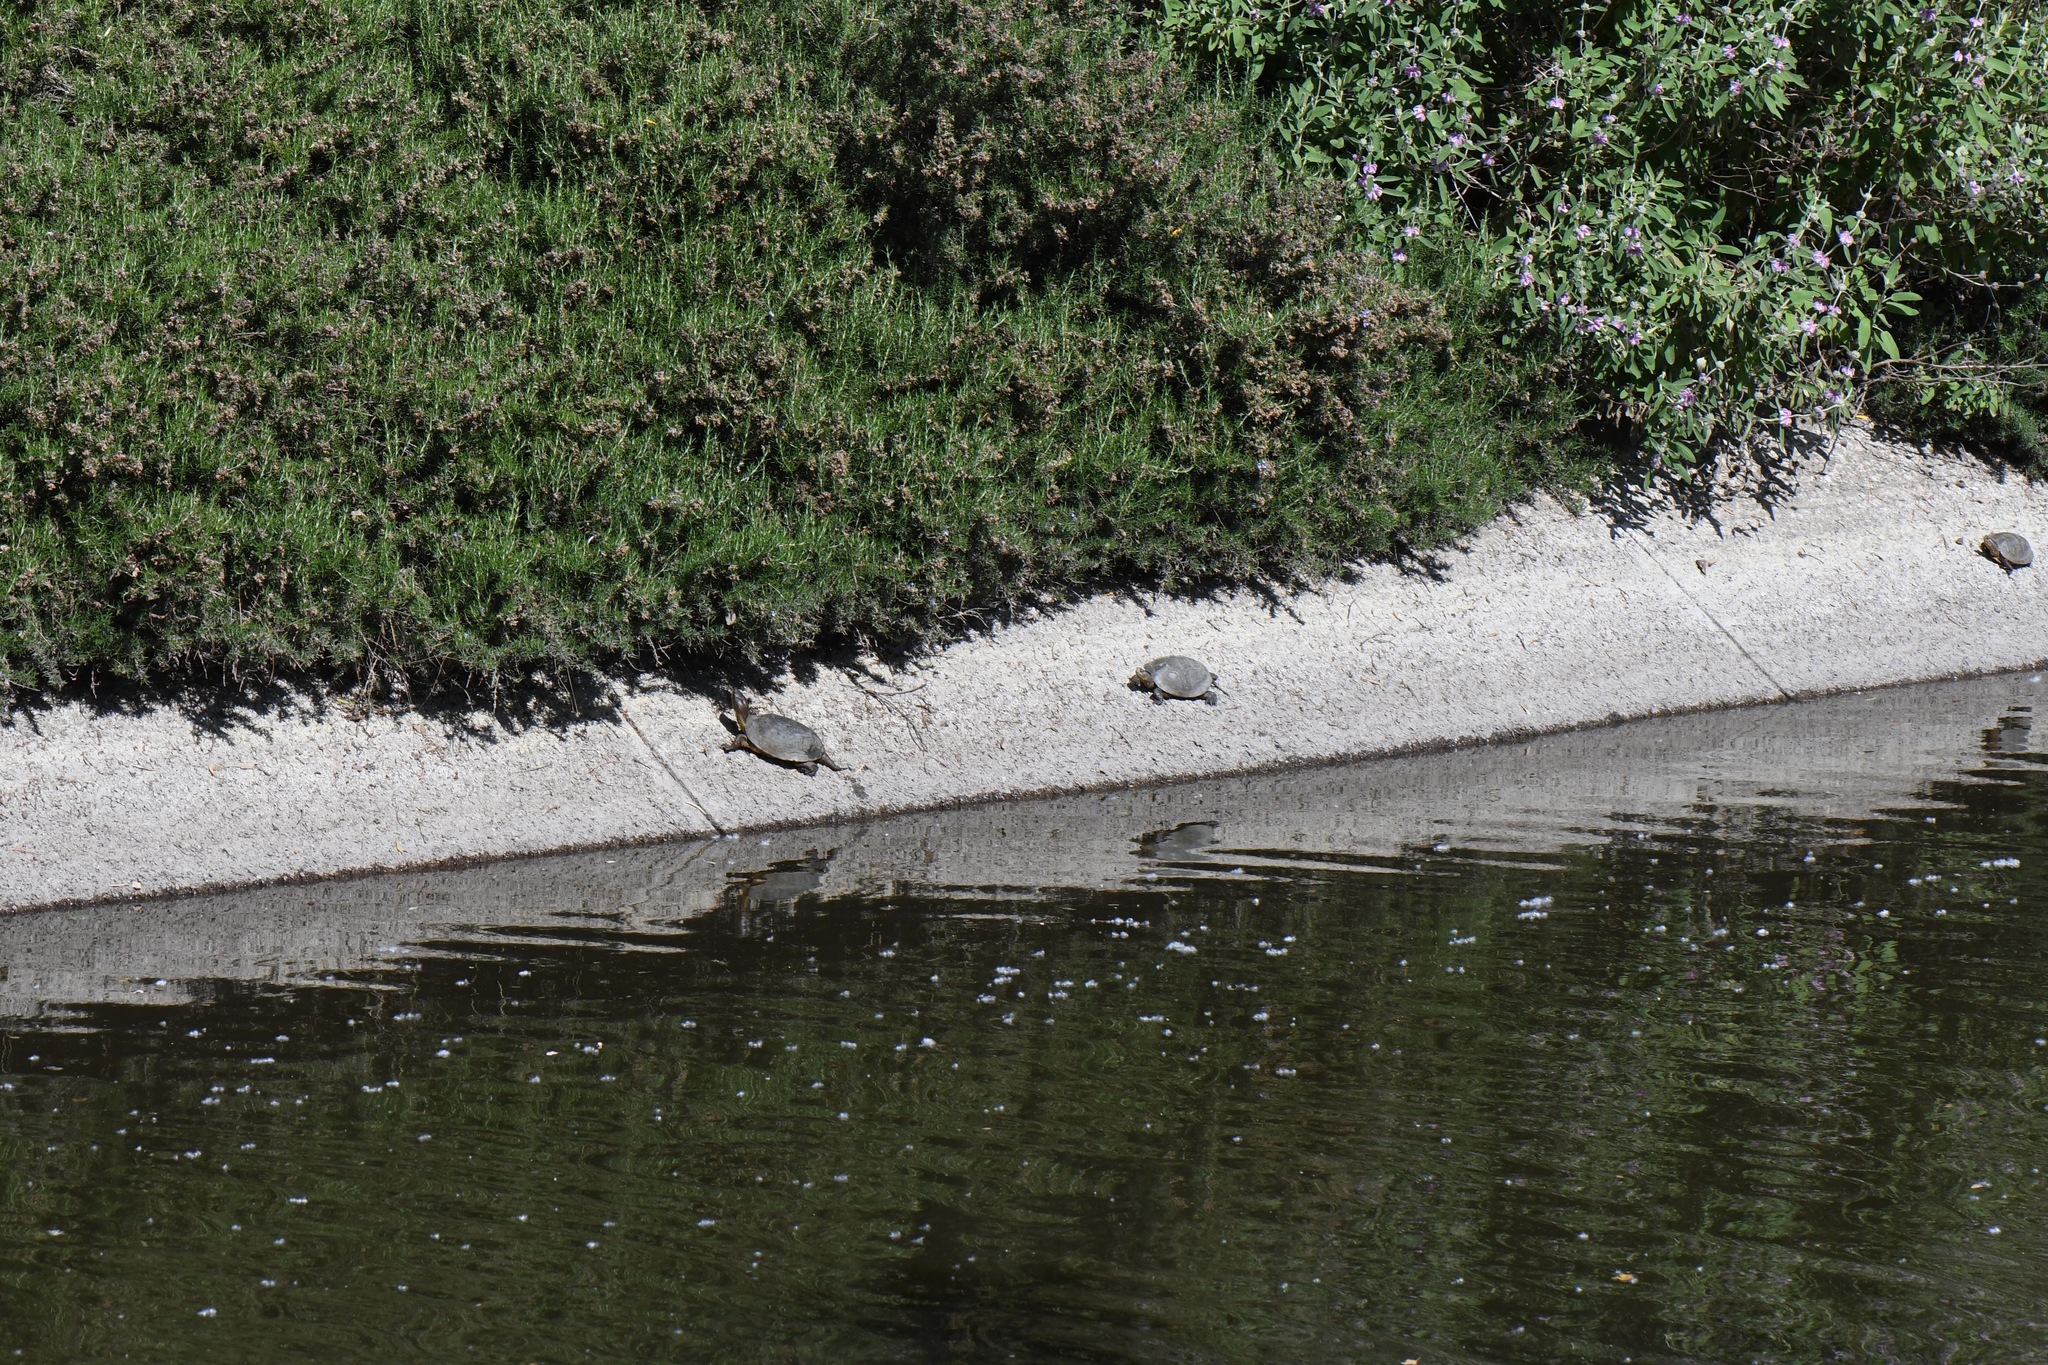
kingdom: Animalia
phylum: Chordata
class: Testudines
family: Emydidae
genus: Actinemys
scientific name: Actinemys marmorata
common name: Western pond turtle
